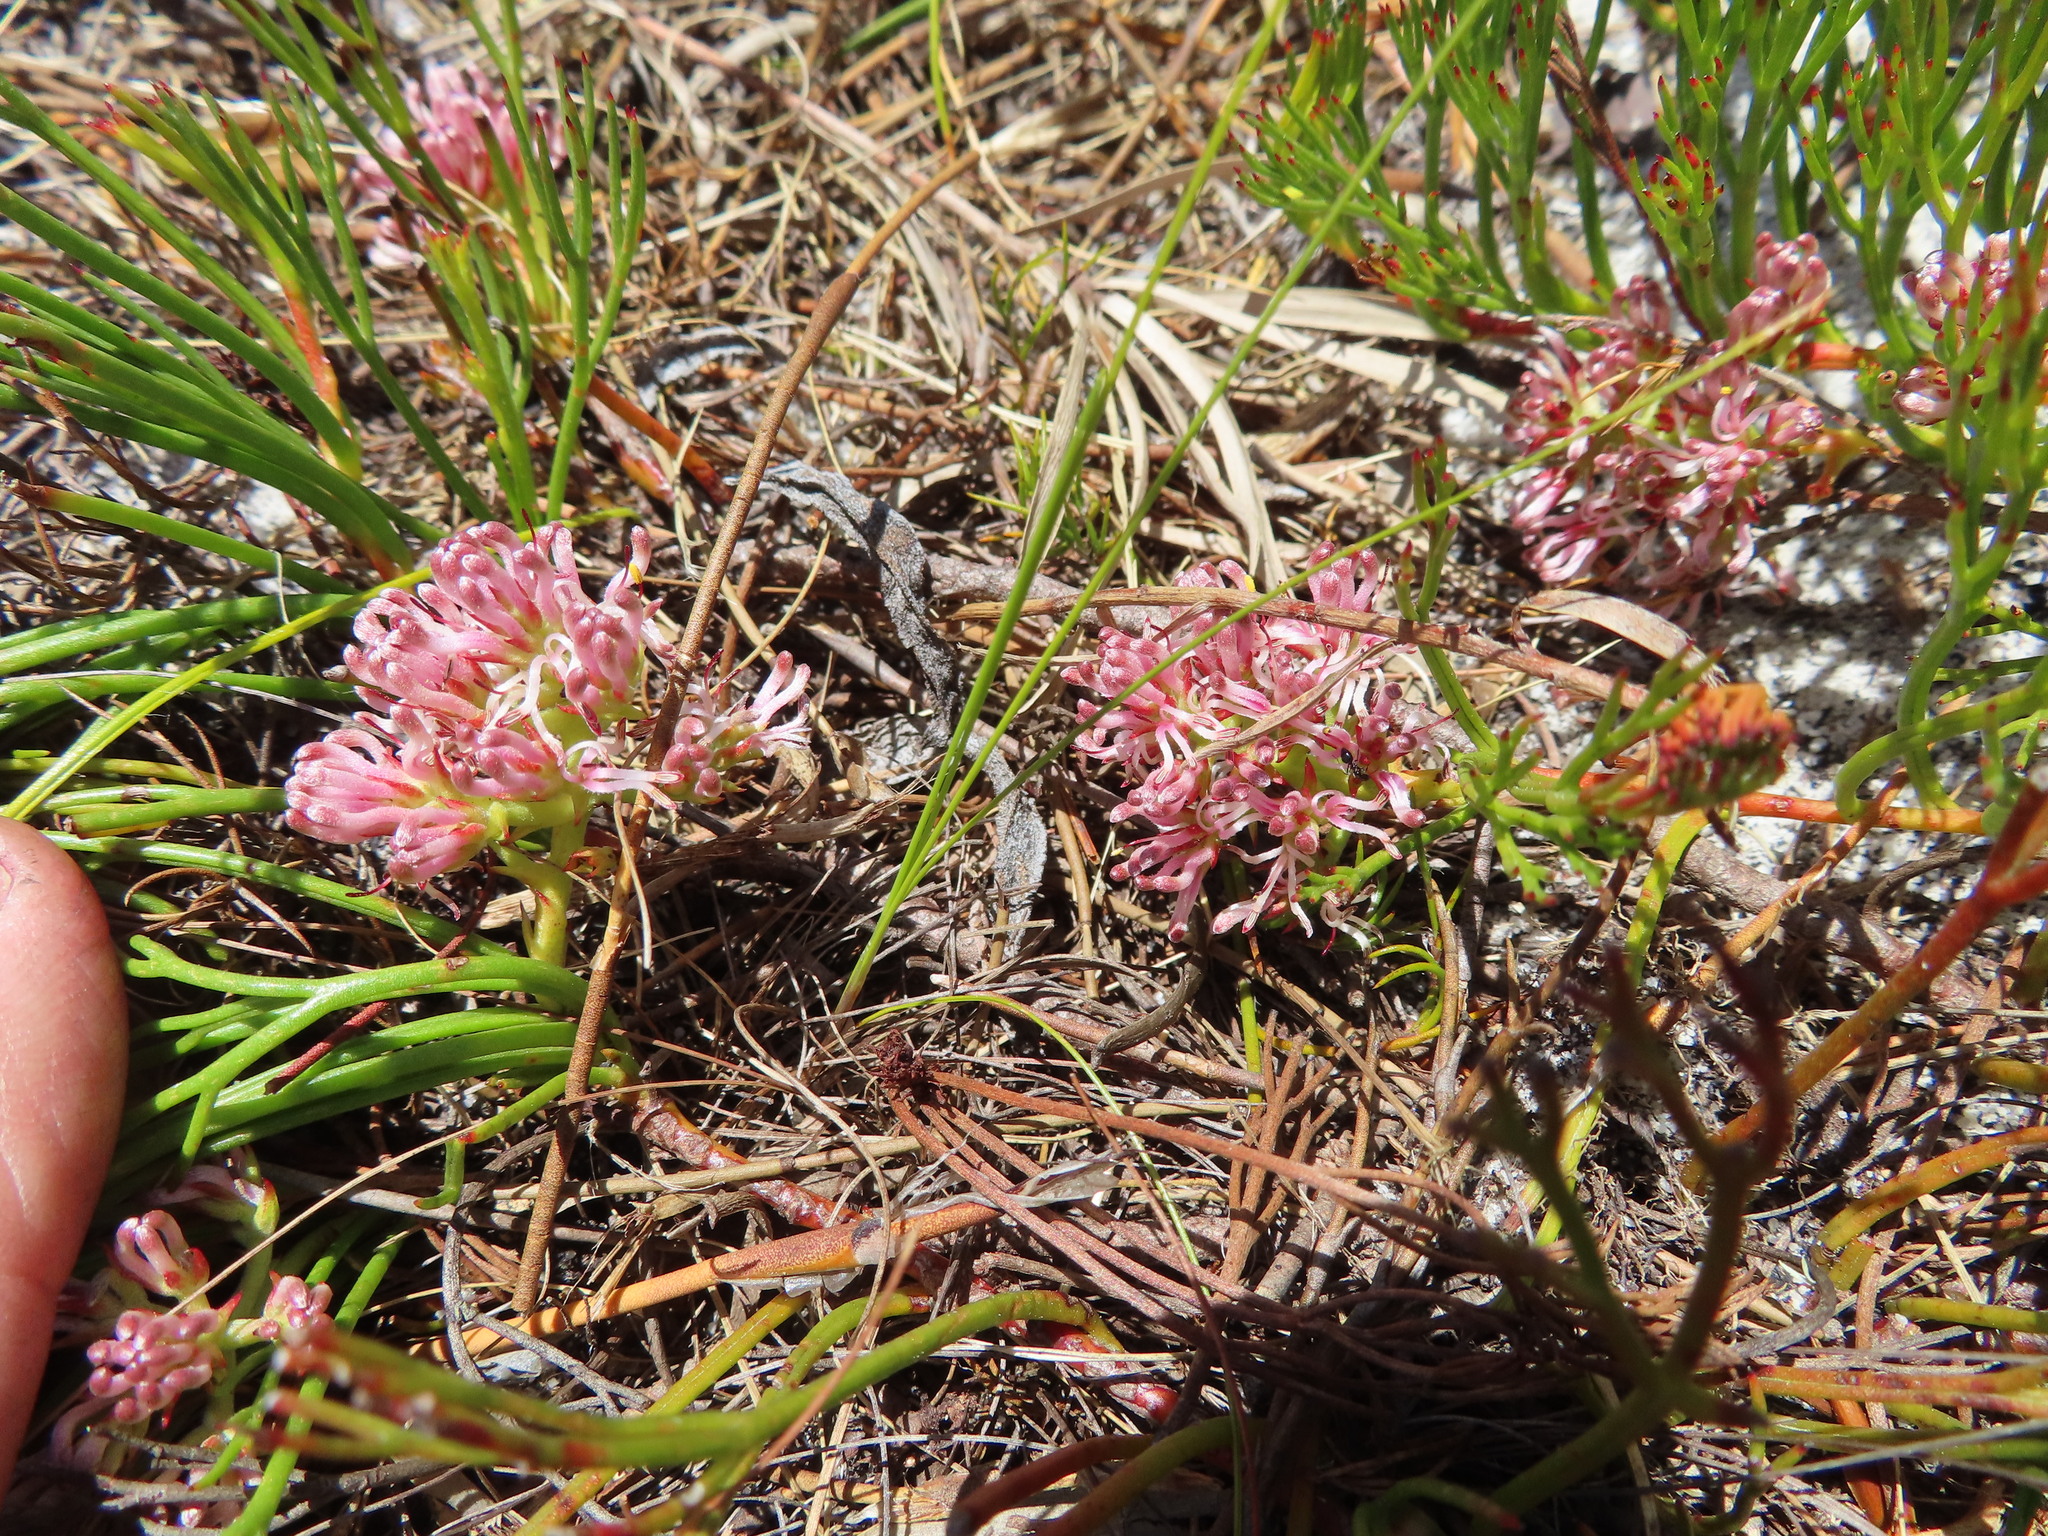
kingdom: Plantae
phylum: Tracheophyta
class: Magnoliopsida
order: Proteales
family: Proteaceae
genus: Serruria
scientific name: Serruria rubricaulis
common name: Red-stem spiderhead
